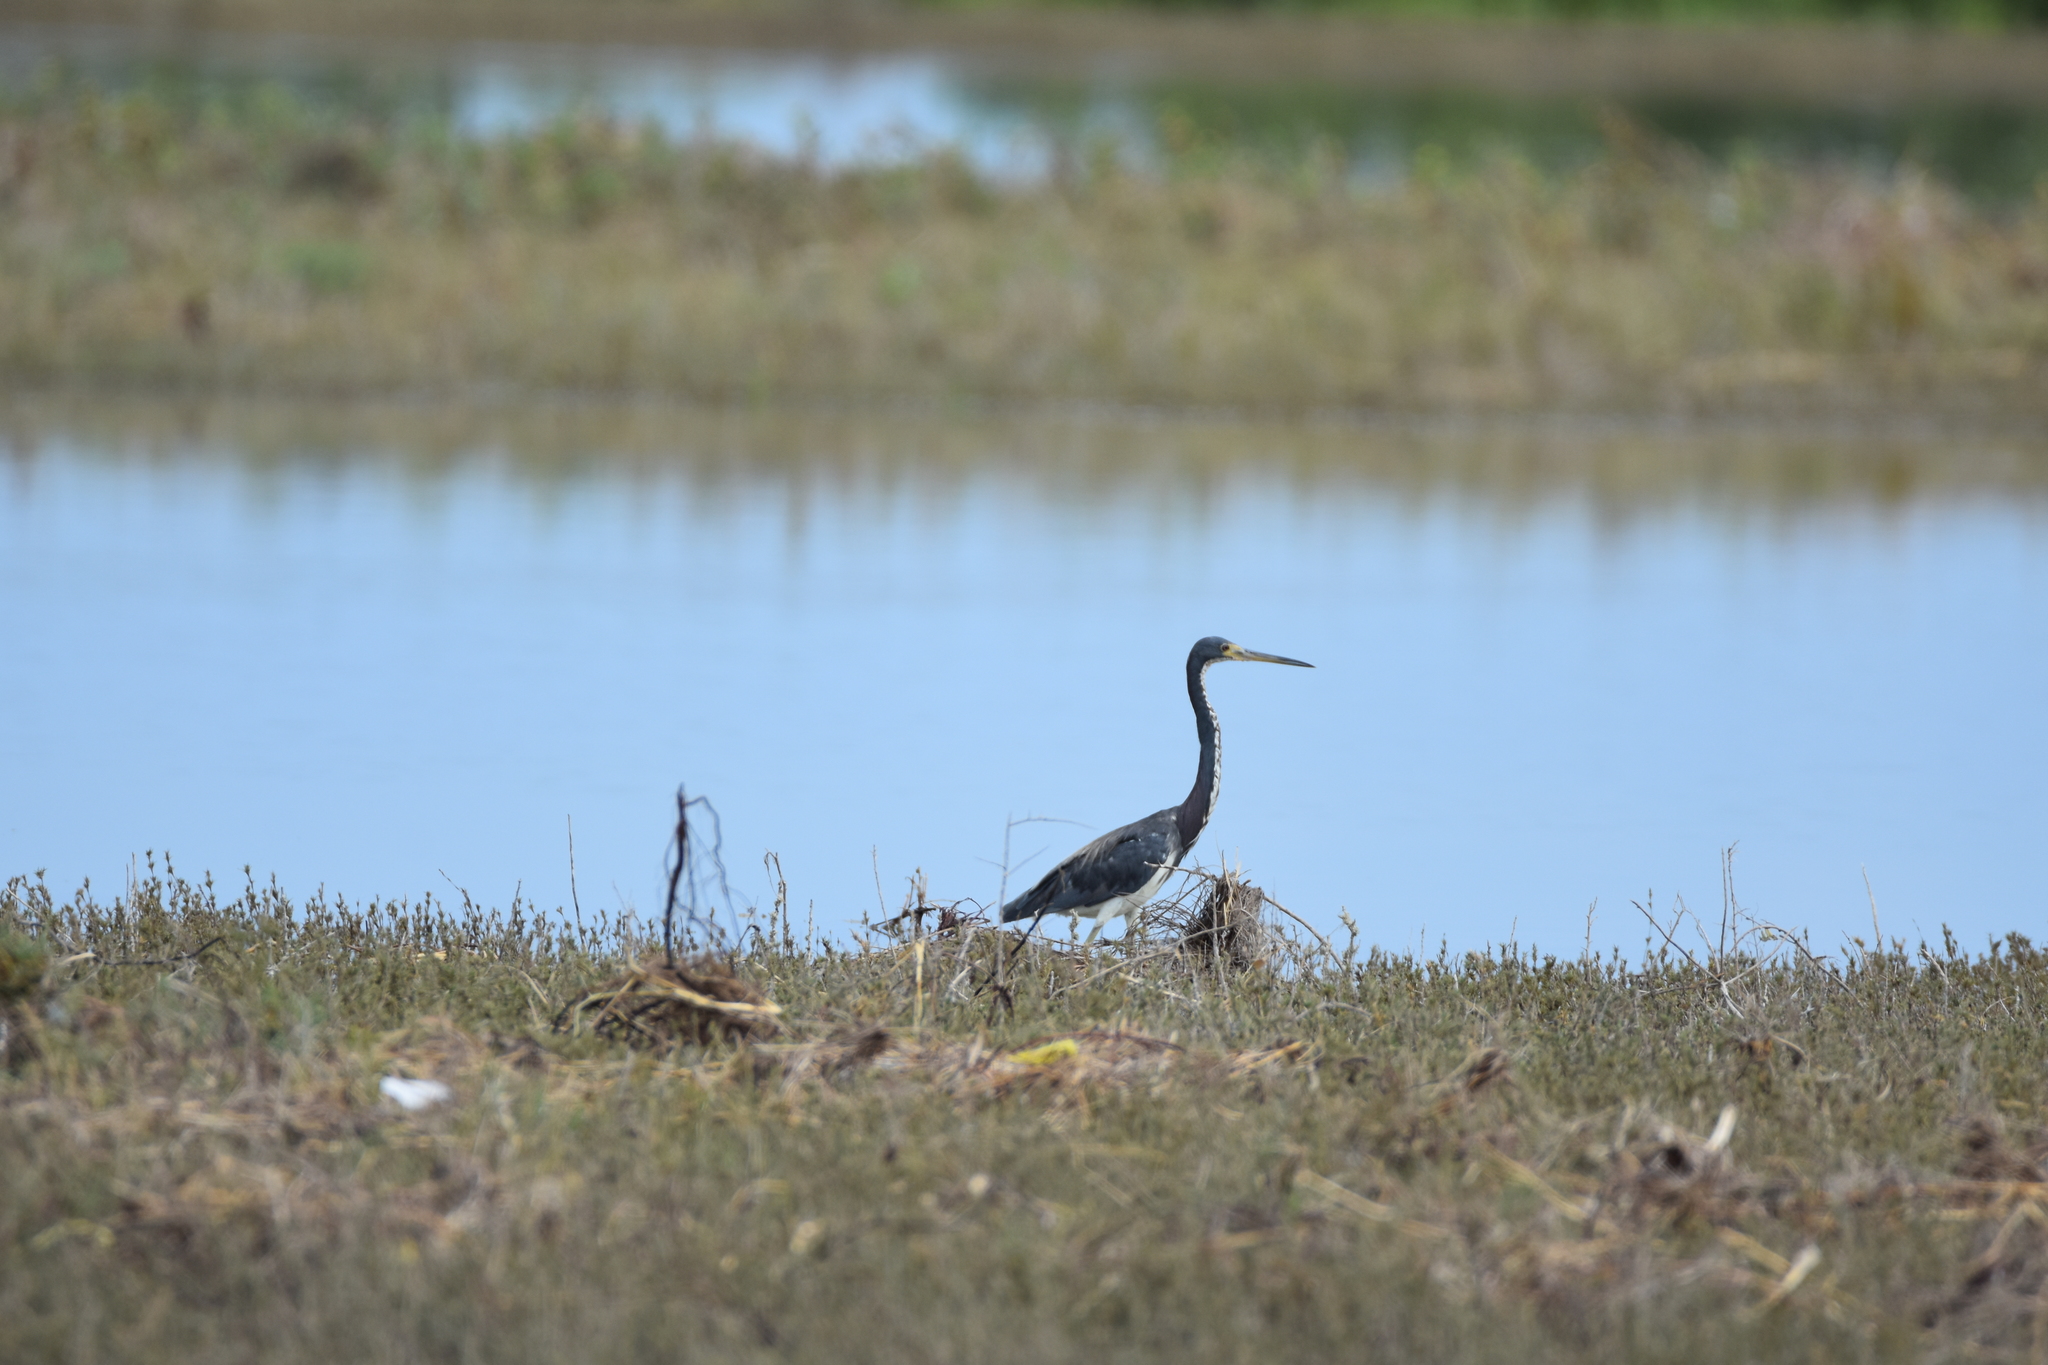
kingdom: Animalia
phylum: Chordata
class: Aves
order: Pelecaniformes
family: Ardeidae
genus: Egretta
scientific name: Egretta tricolor
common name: Tricolored heron
